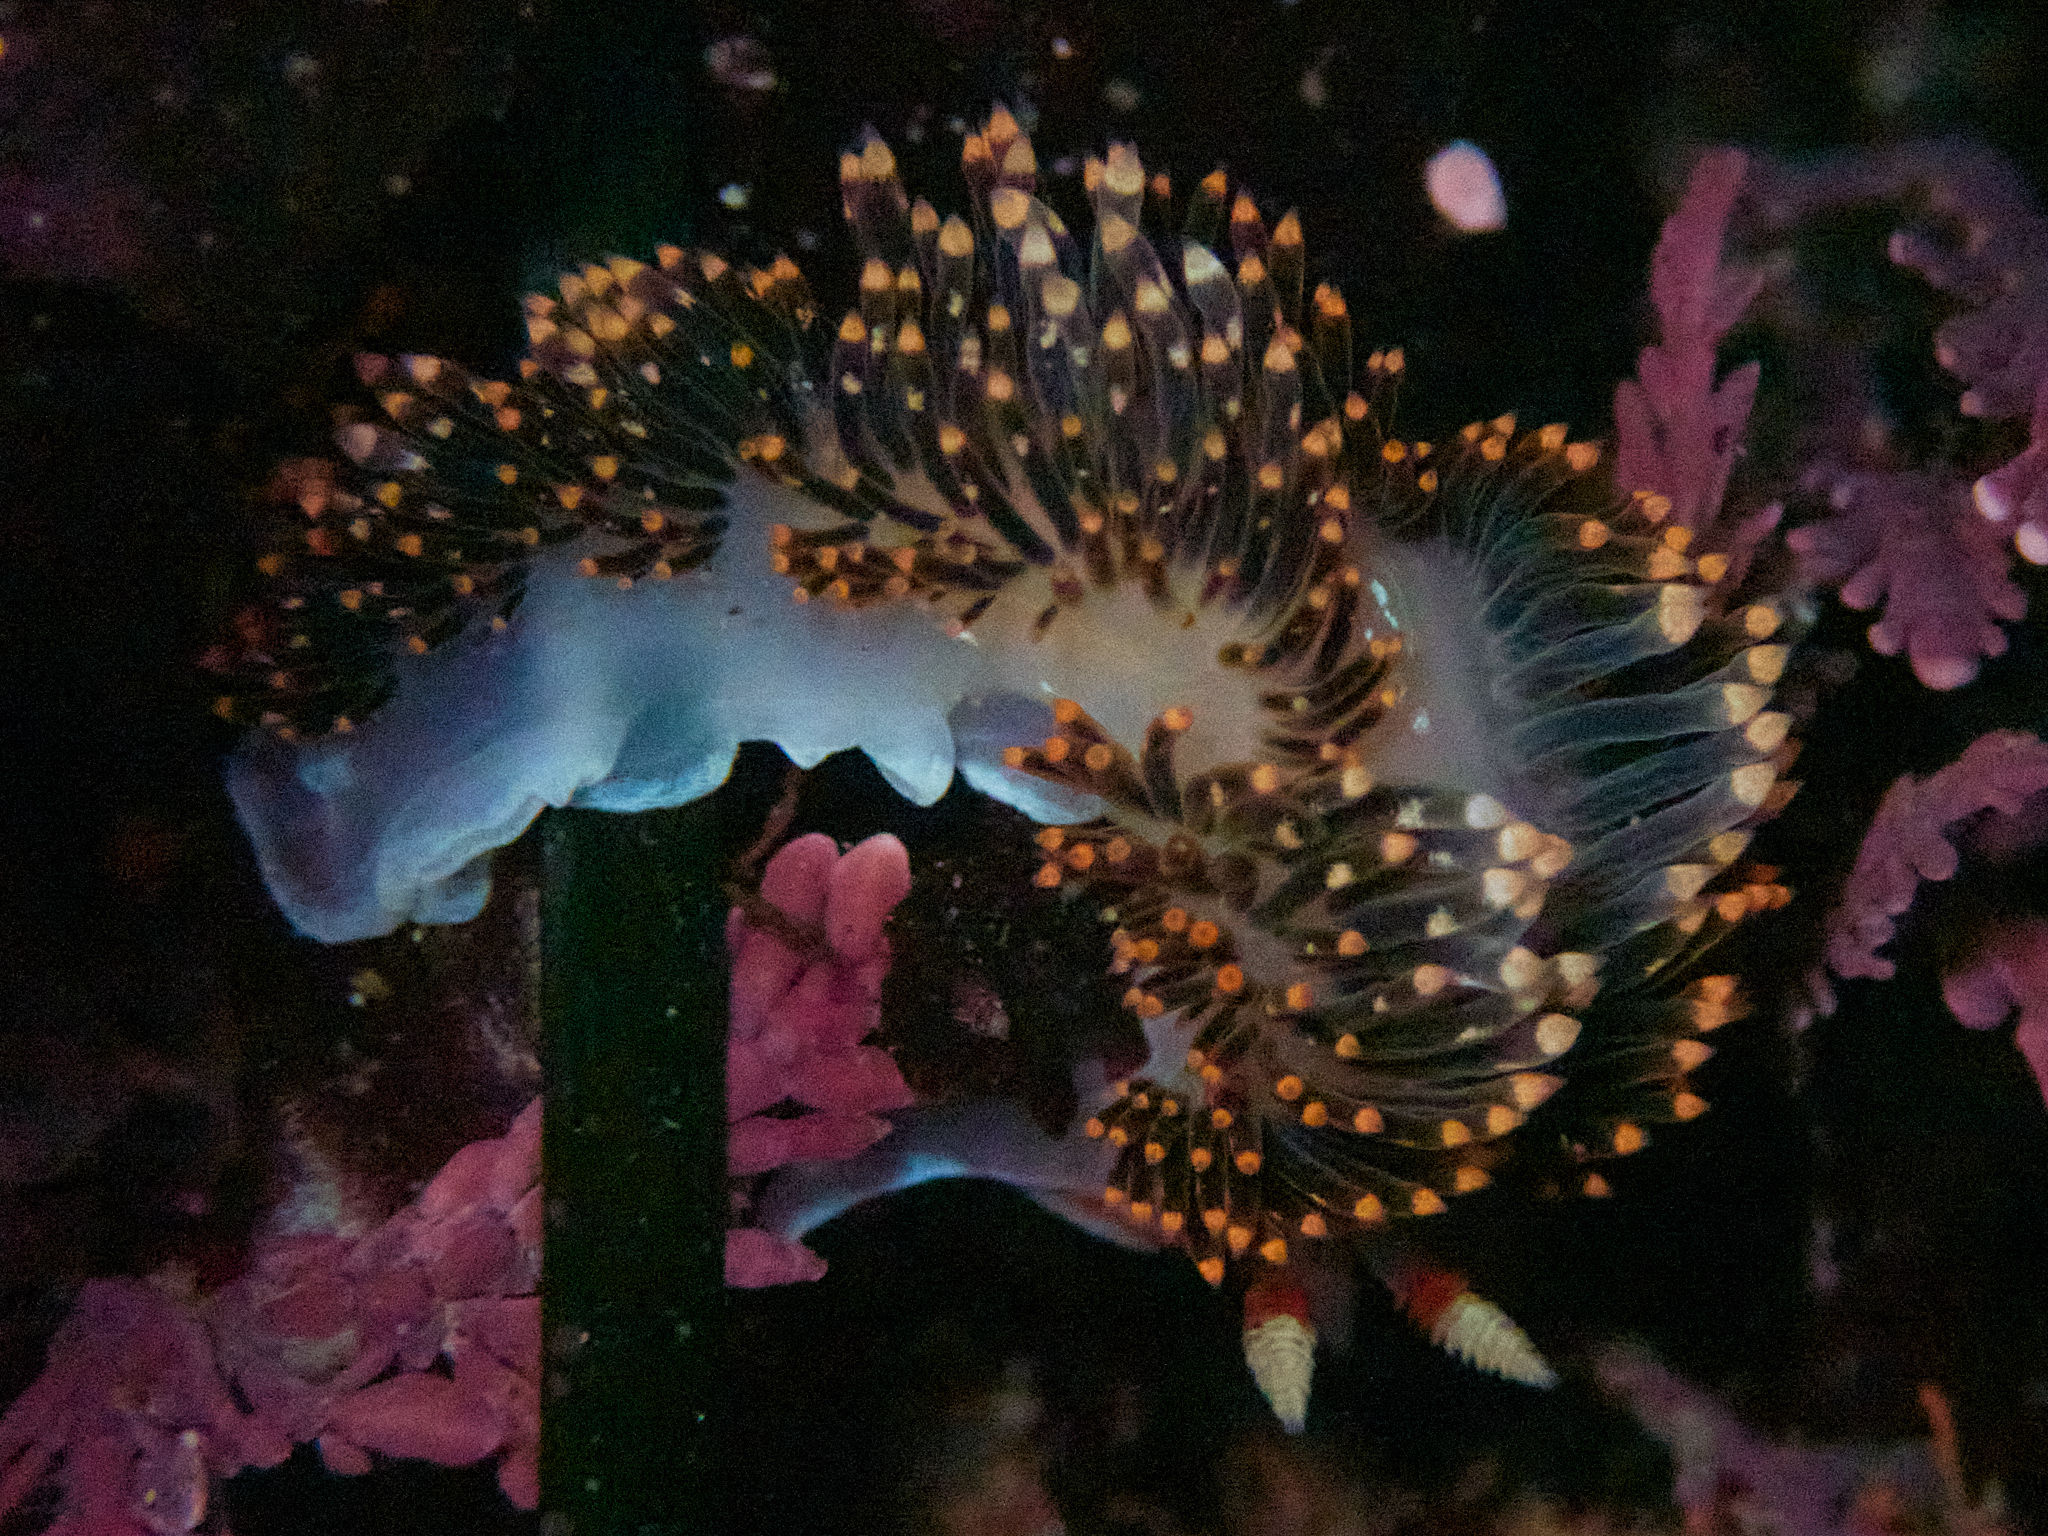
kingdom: Animalia
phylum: Mollusca
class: Gastropoda
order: Nudibranchia
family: Facelinidae
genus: Phidiana
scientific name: Phidiana hiltoni
